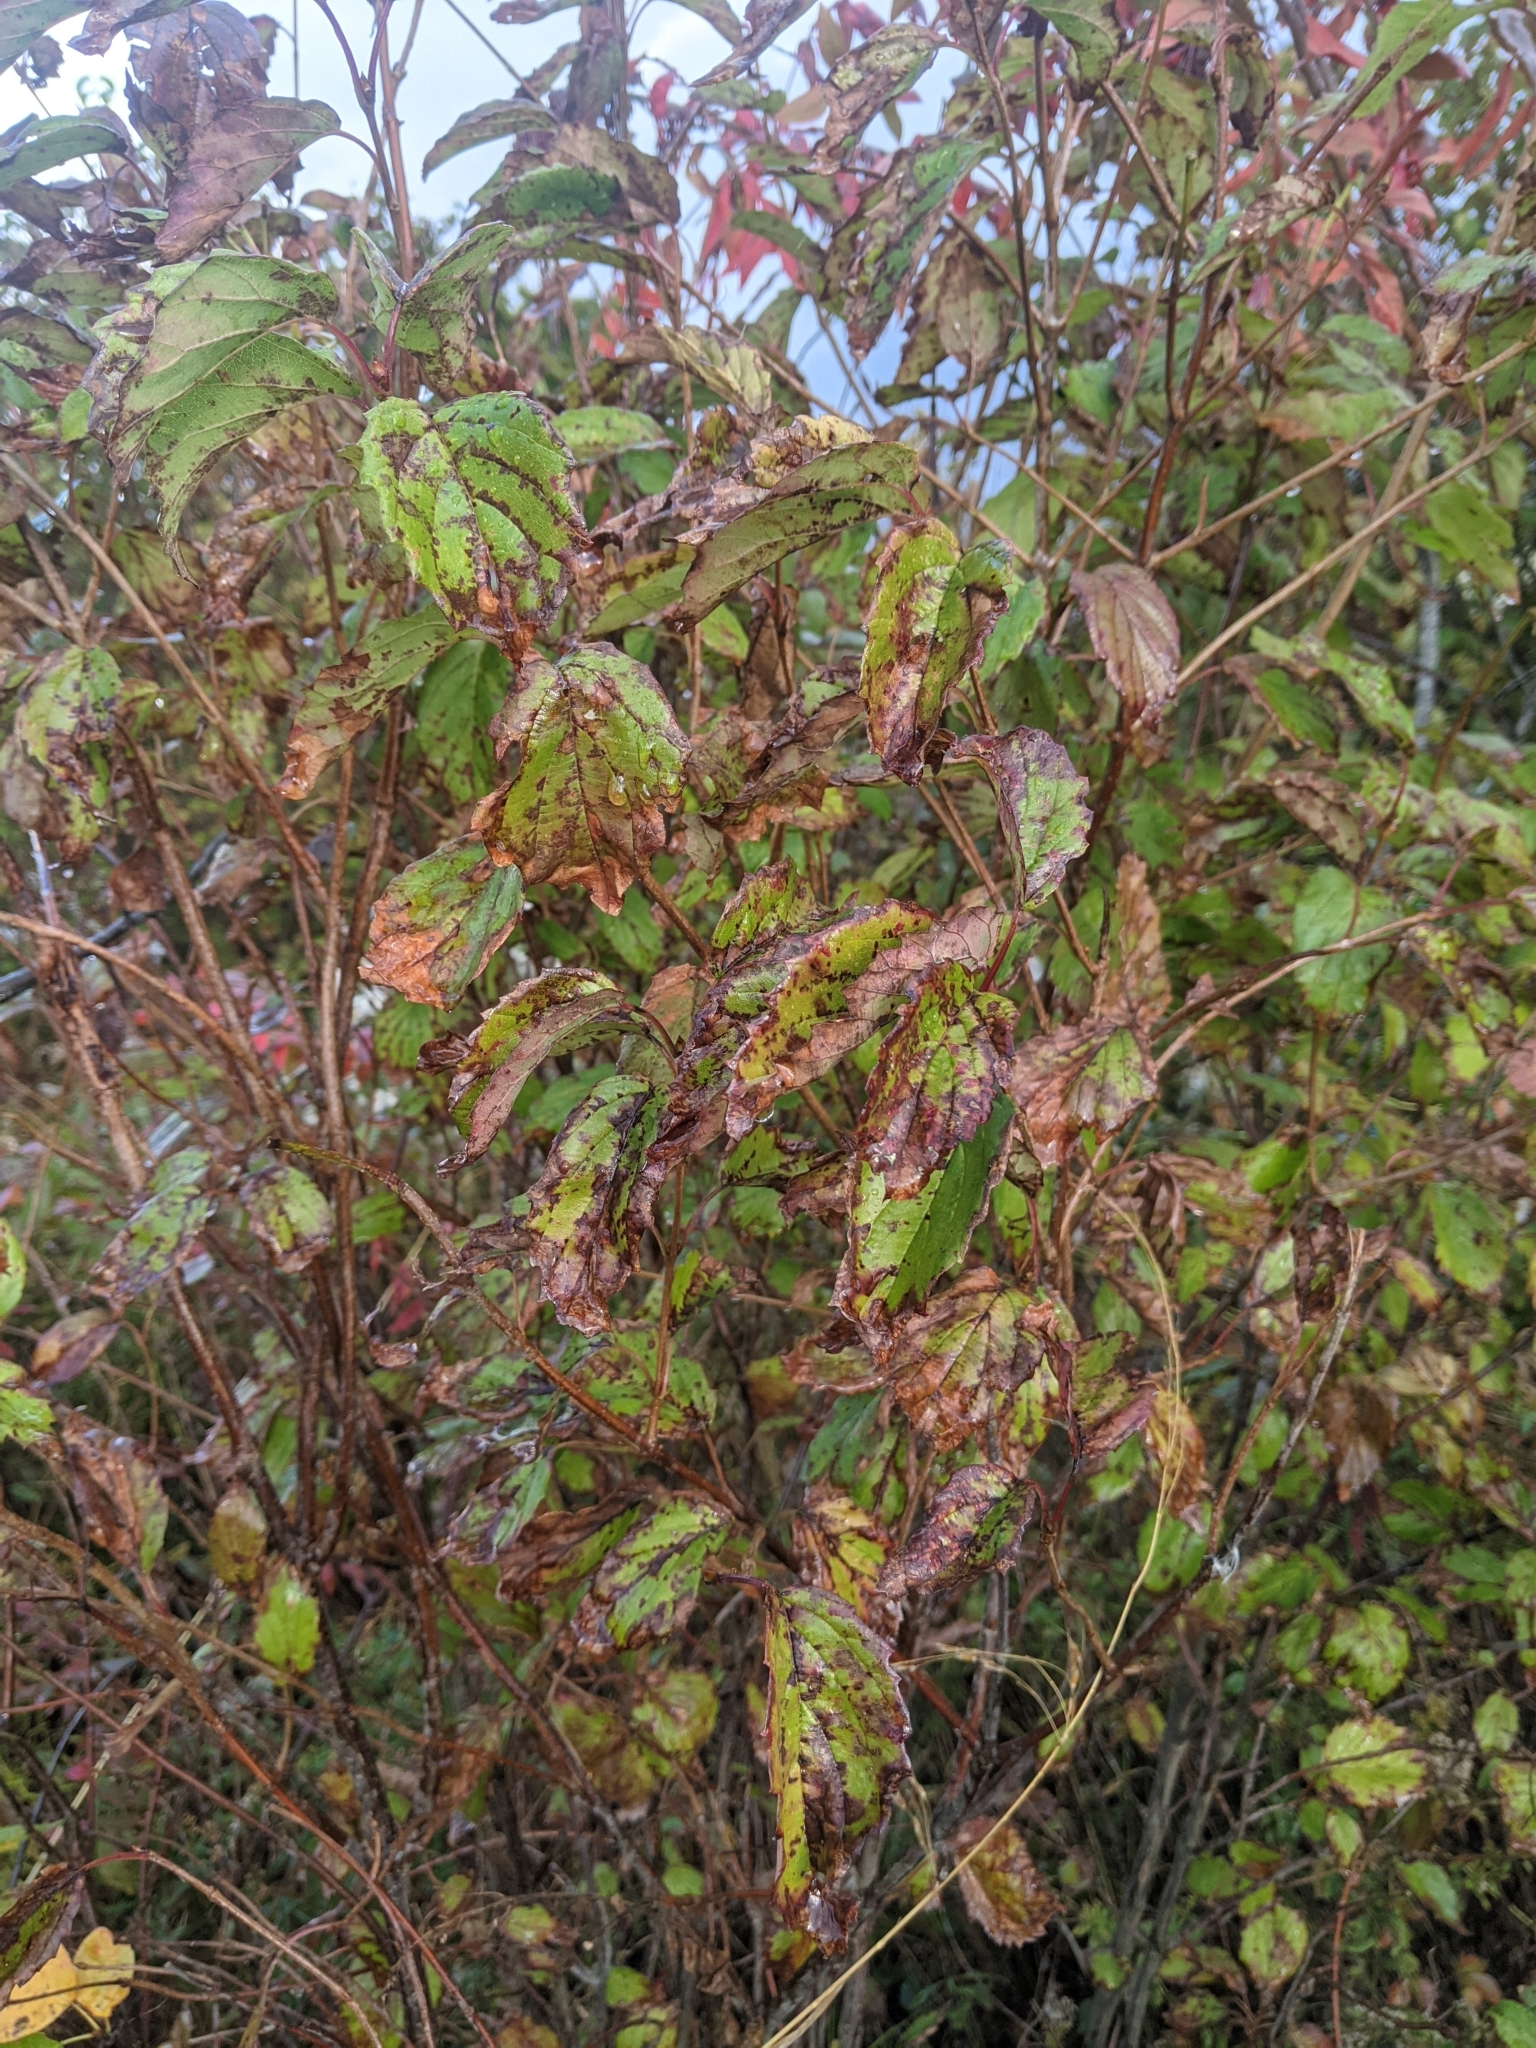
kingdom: Plantae
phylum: Tracheophyta
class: Magnoliopsida
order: Dipsacales
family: Viburnaceae
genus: Viburnum
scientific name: Viburnum dentatum
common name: Arrow-wood
